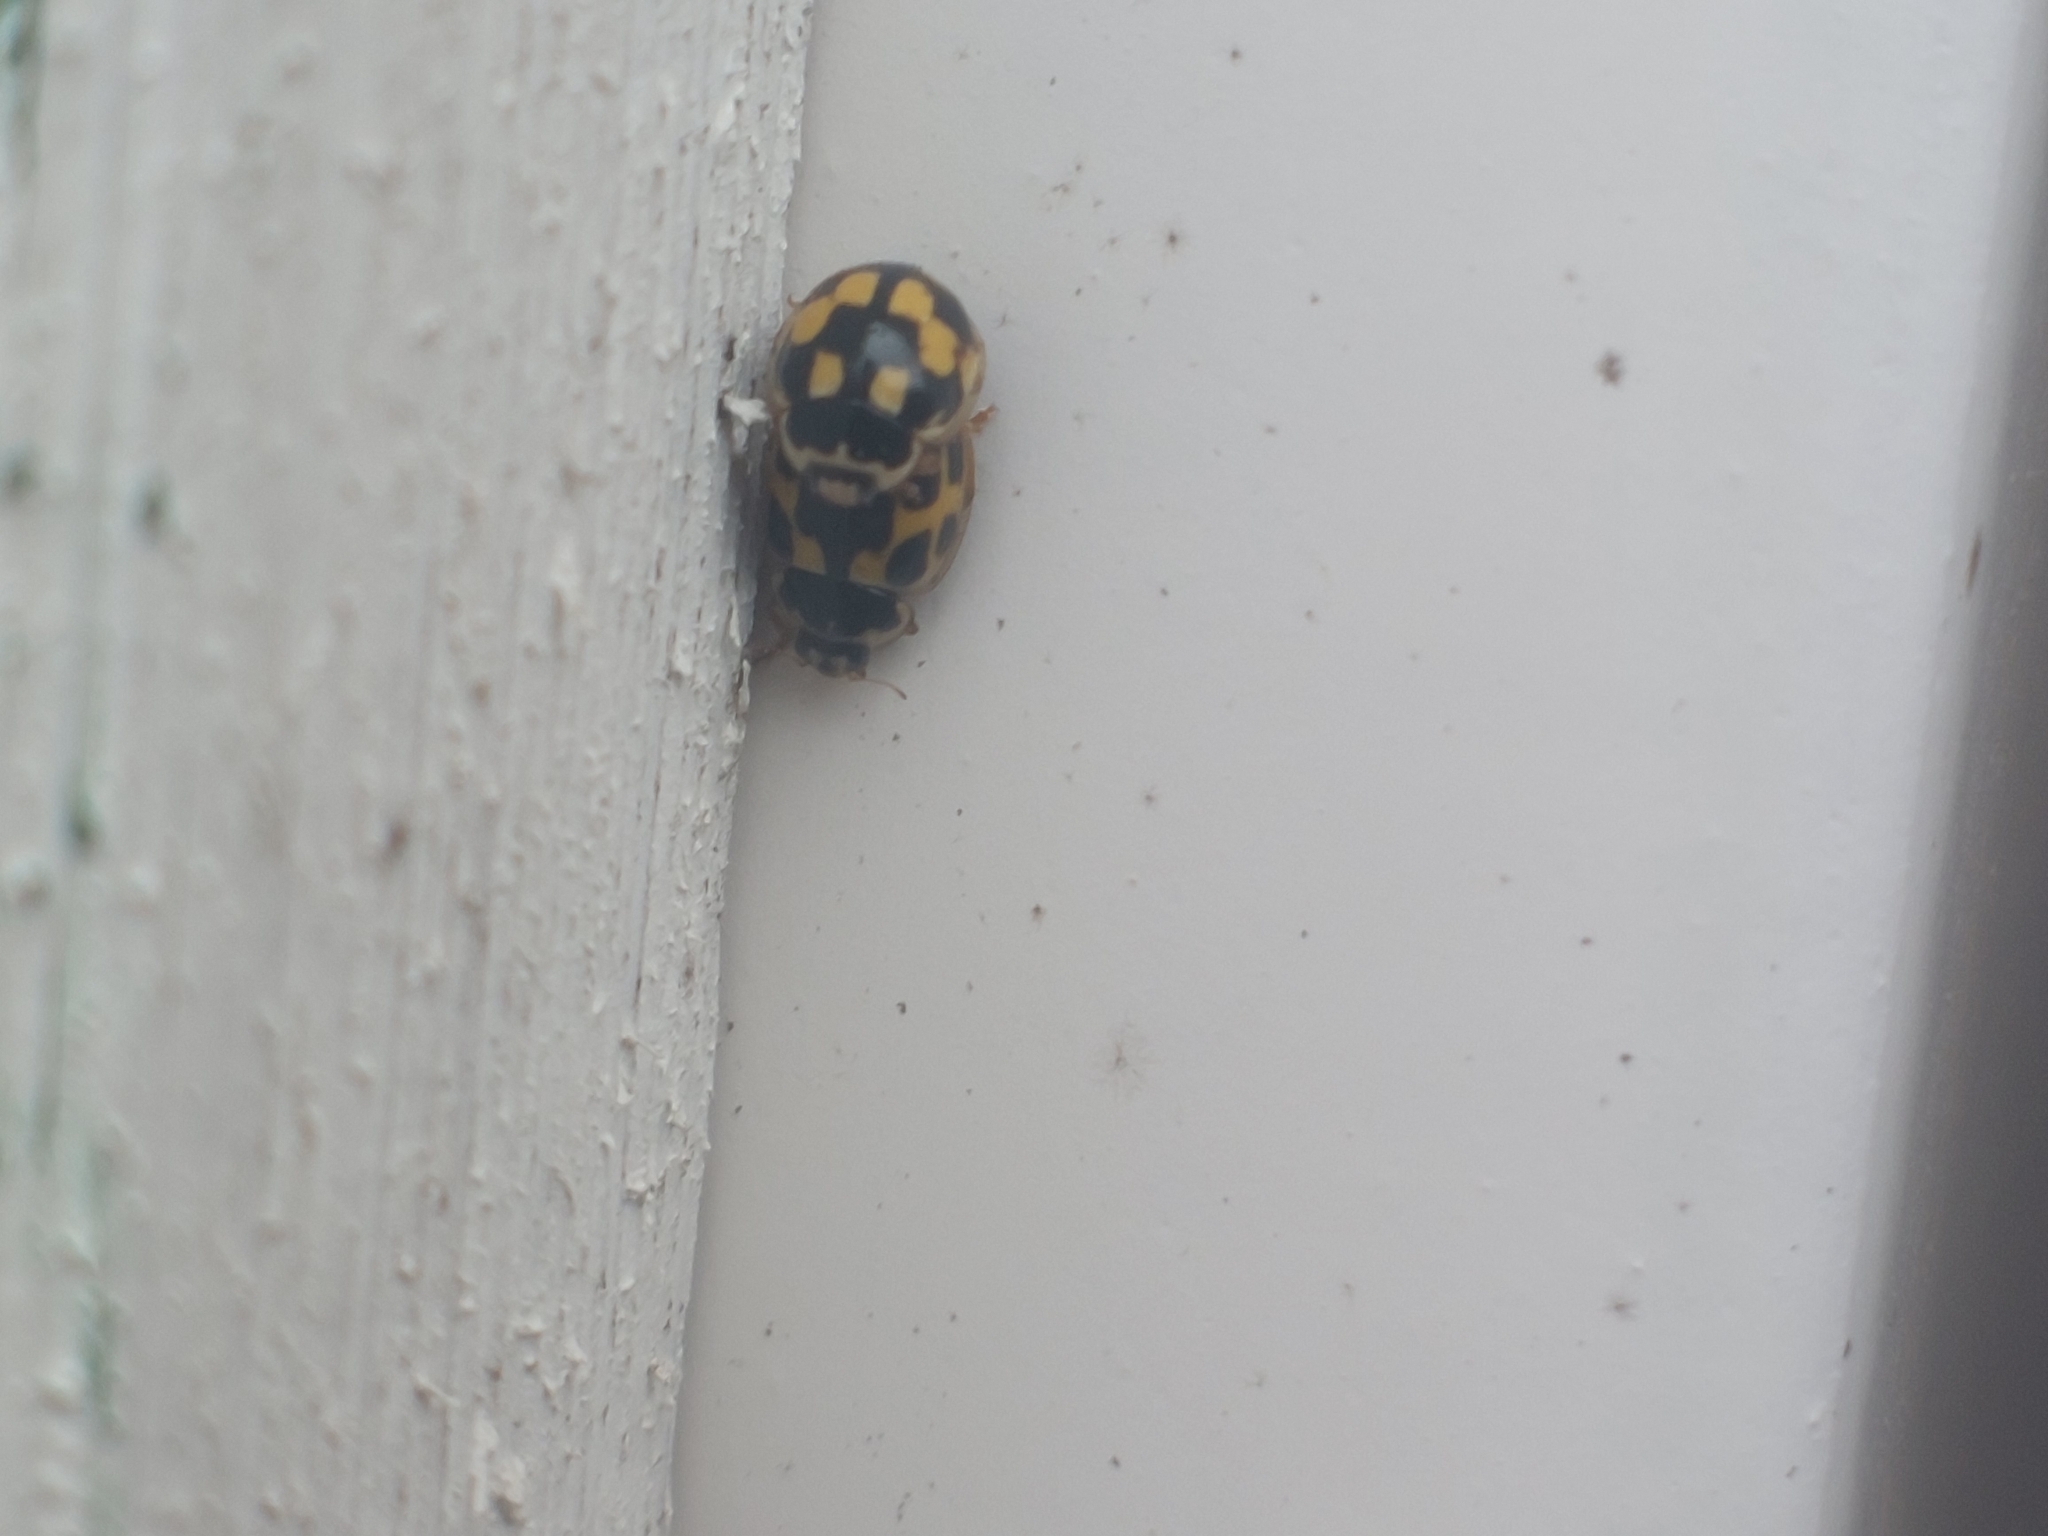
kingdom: Animalia
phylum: Arthropoda
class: Insecta
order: Coleoptera
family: Coccinellidae
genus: Propylaea
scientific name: Propylaea quatuordecimpunctata
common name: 14-spotted ladybird beetle
